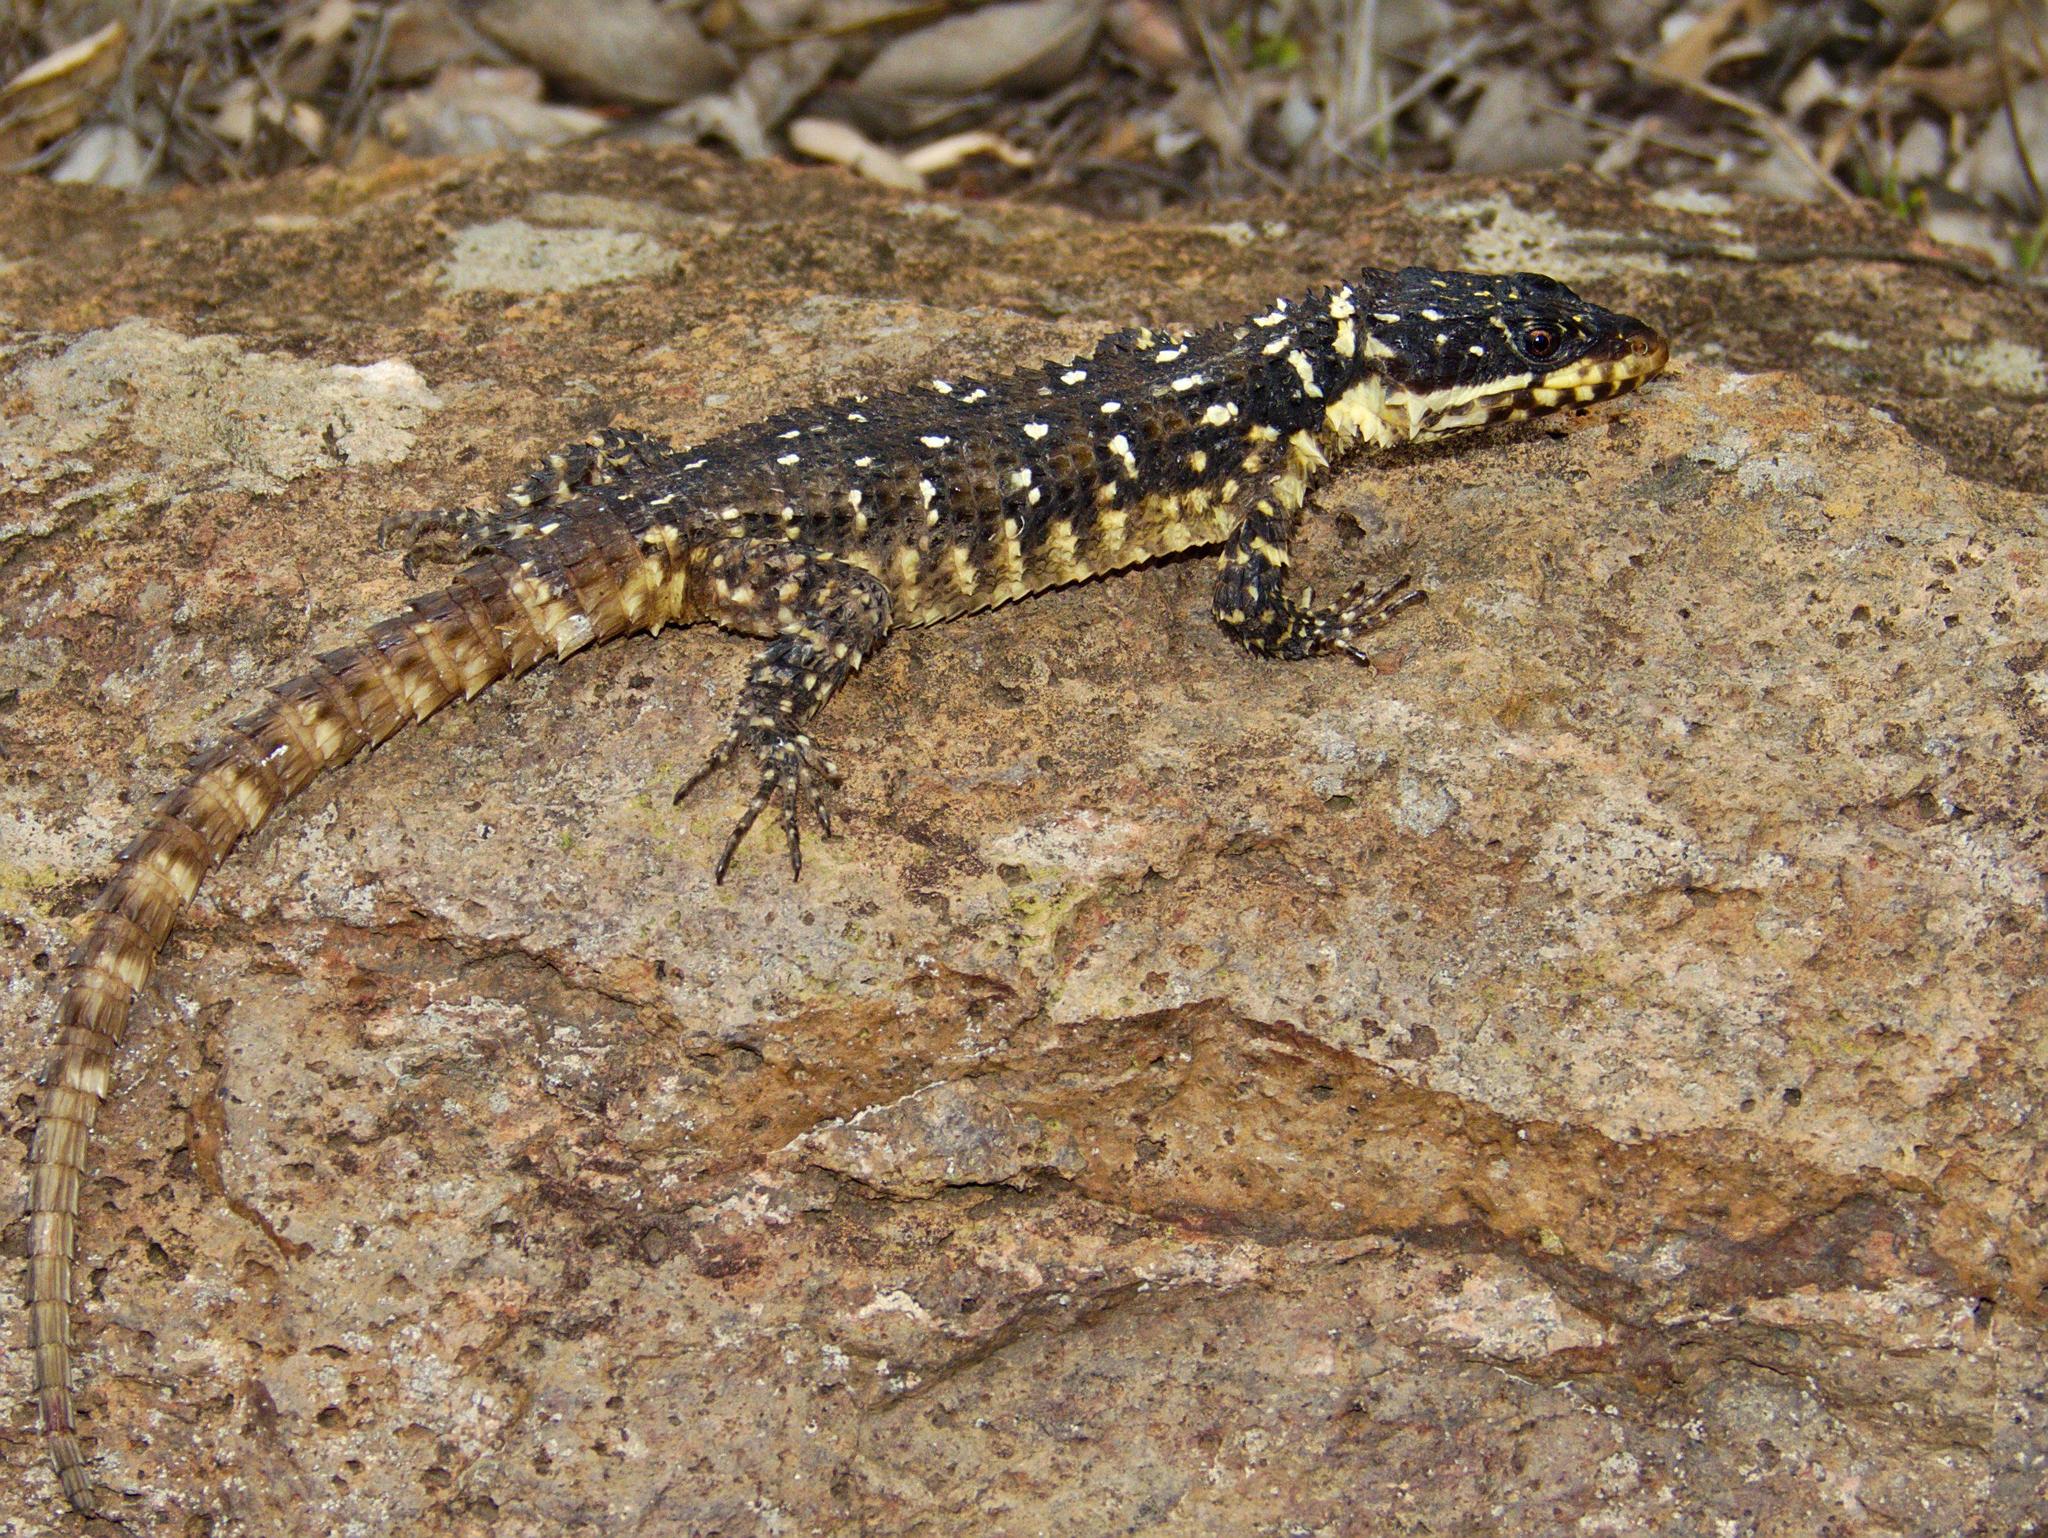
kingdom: Animalia
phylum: Chordata
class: Squamata
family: Cordylidae
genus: Smaug
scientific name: Smaug warreni
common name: Lebombo dragon lizard
